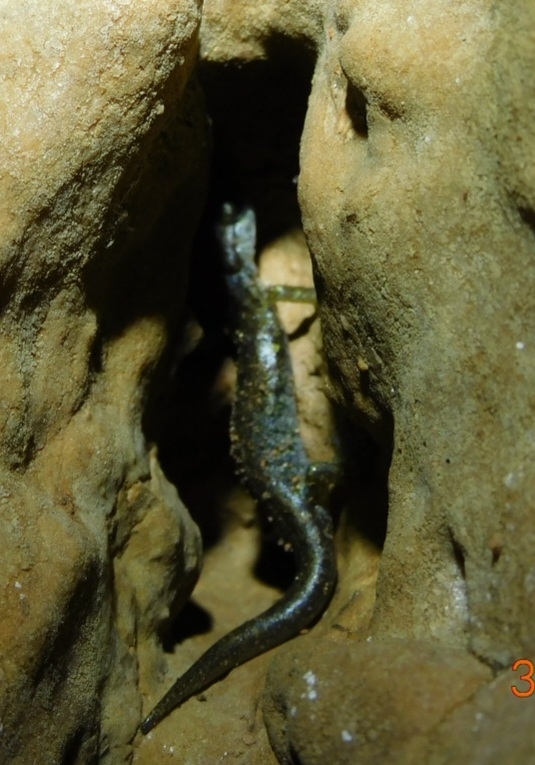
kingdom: Animalia
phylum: Chordata
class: Amphibia
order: Caudata
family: Plethodontidae
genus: Speleomantes
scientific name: Speleomantes genei
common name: Gene's cave salamander
